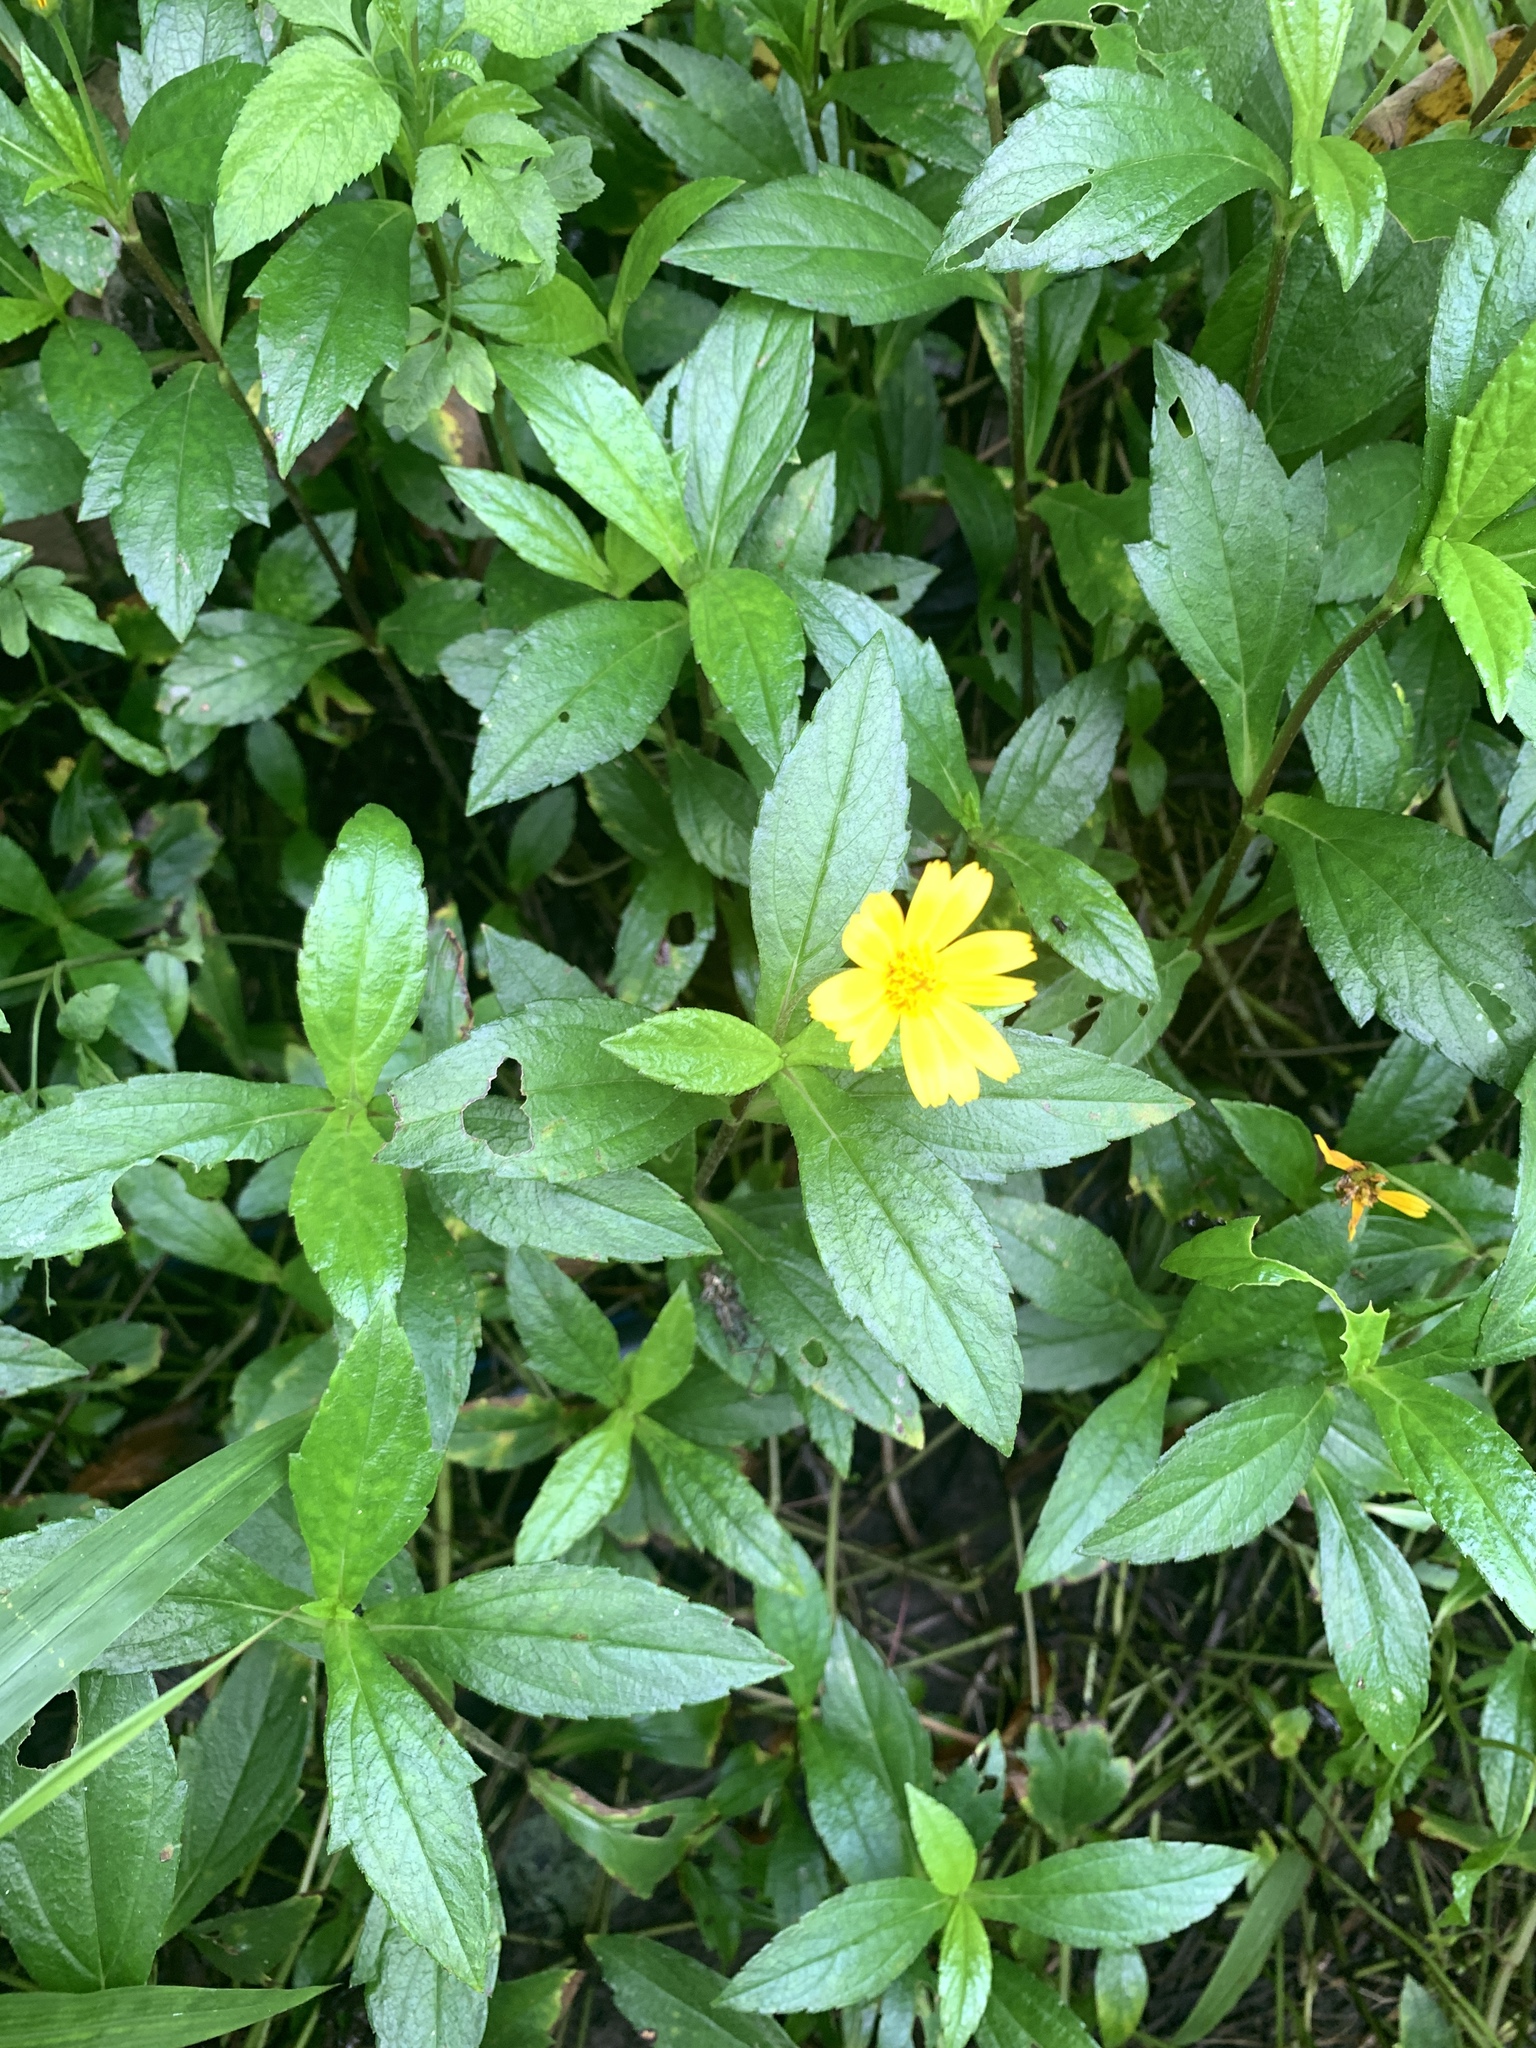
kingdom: Plantae
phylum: Tracheophyta
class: Magnoliopsida
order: Asterales
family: Asteraceae
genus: Sphagneticola
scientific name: Sphagneticola trilobata
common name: Bay biscayne creeping-oxeye
